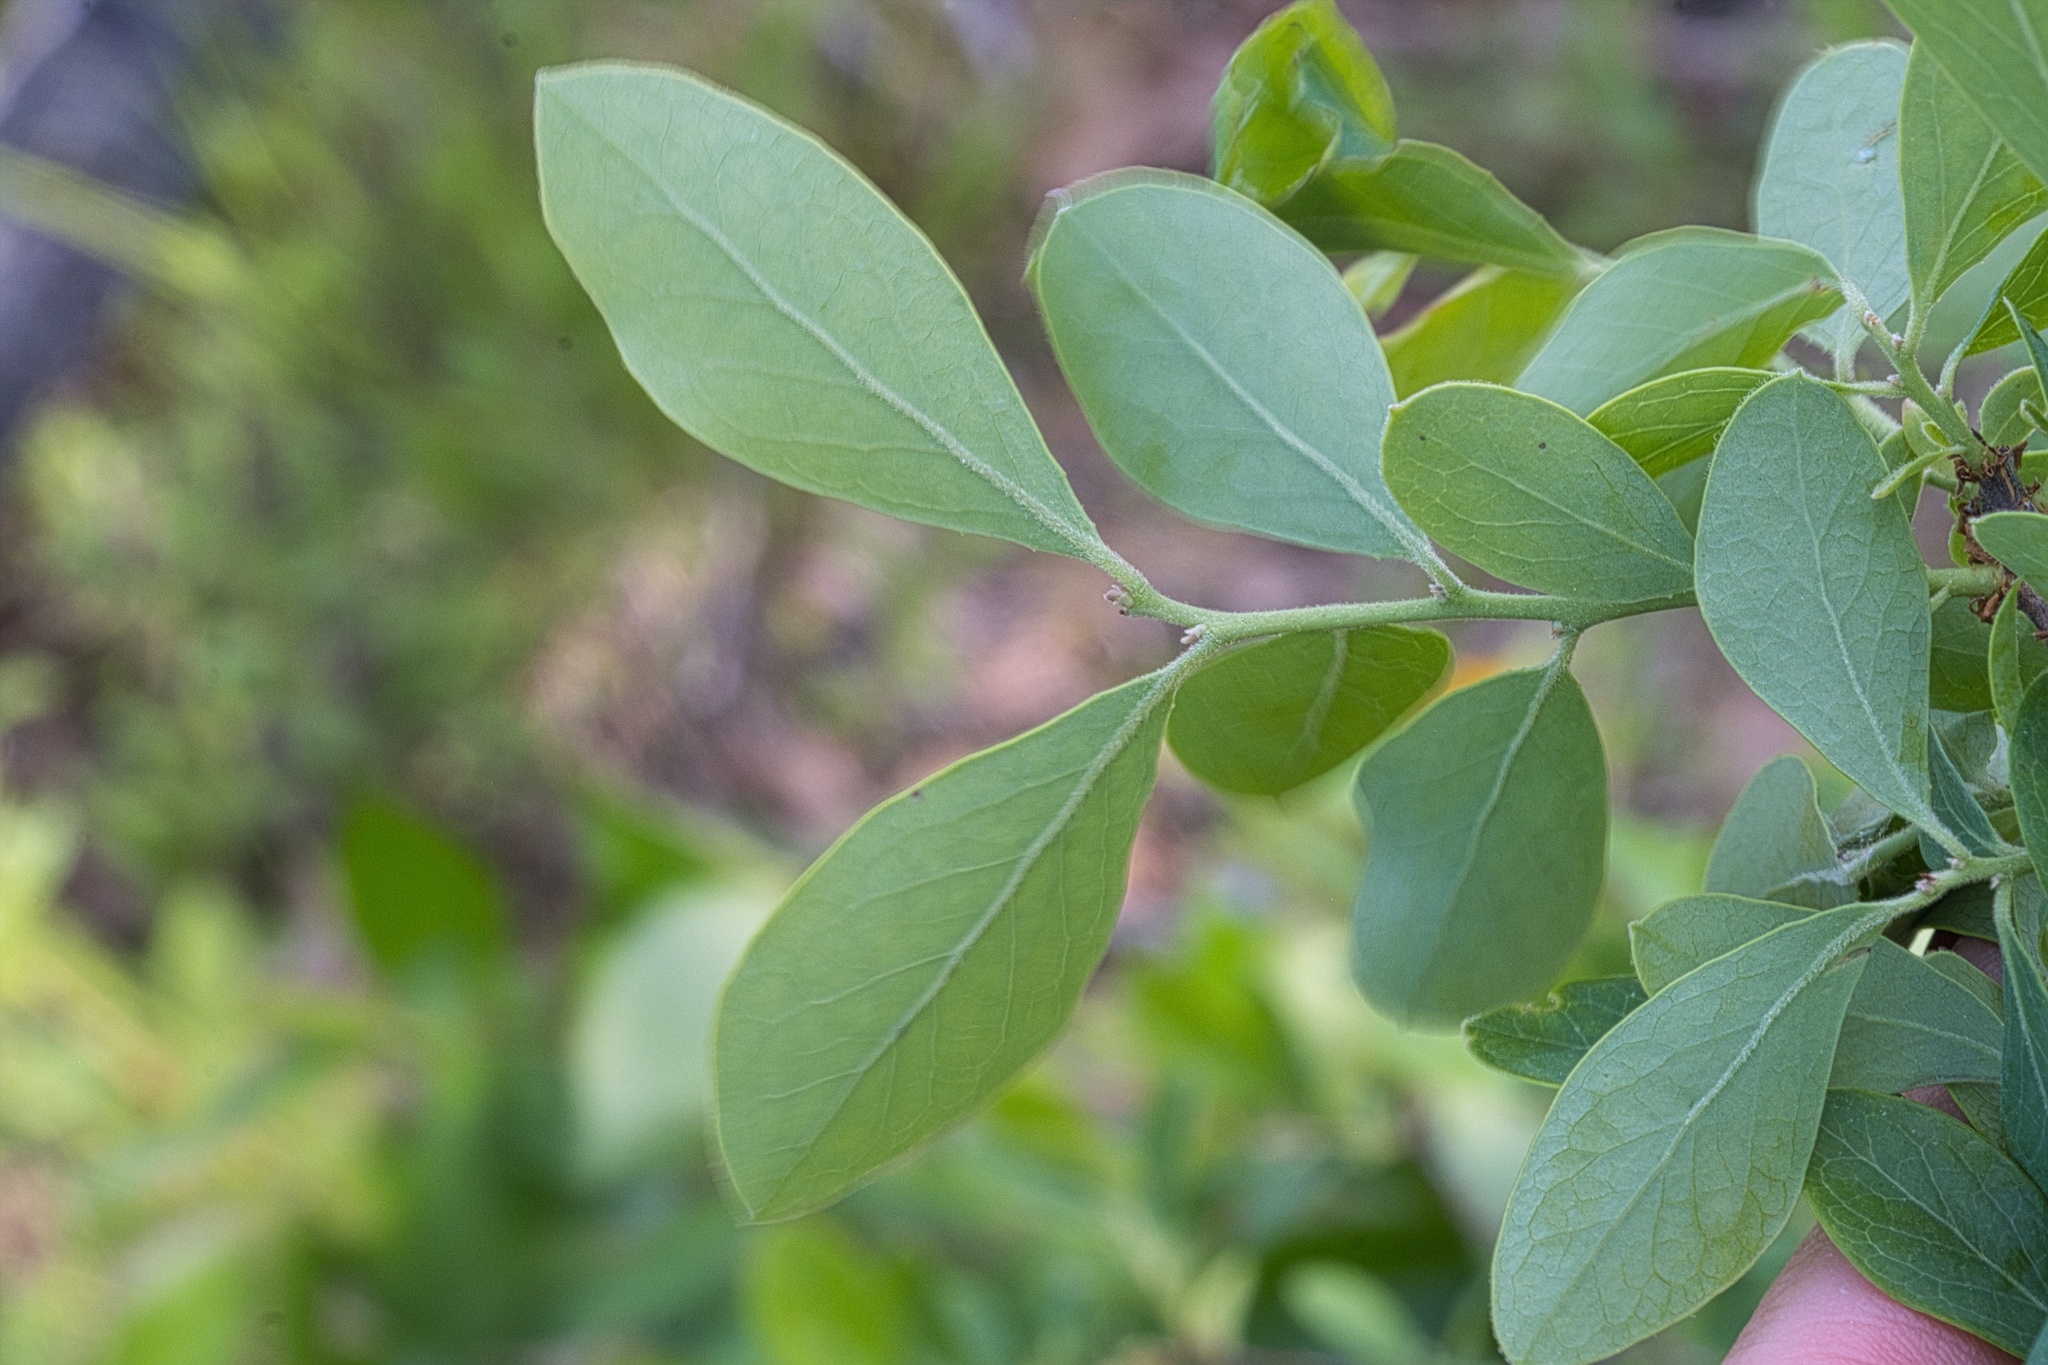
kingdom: Plantae
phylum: Tracheophyta
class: Magnoliopsida
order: Ericales
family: Ericaceae
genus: Vaccinium
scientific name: Vaccinium arboreum
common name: Farkleberry
